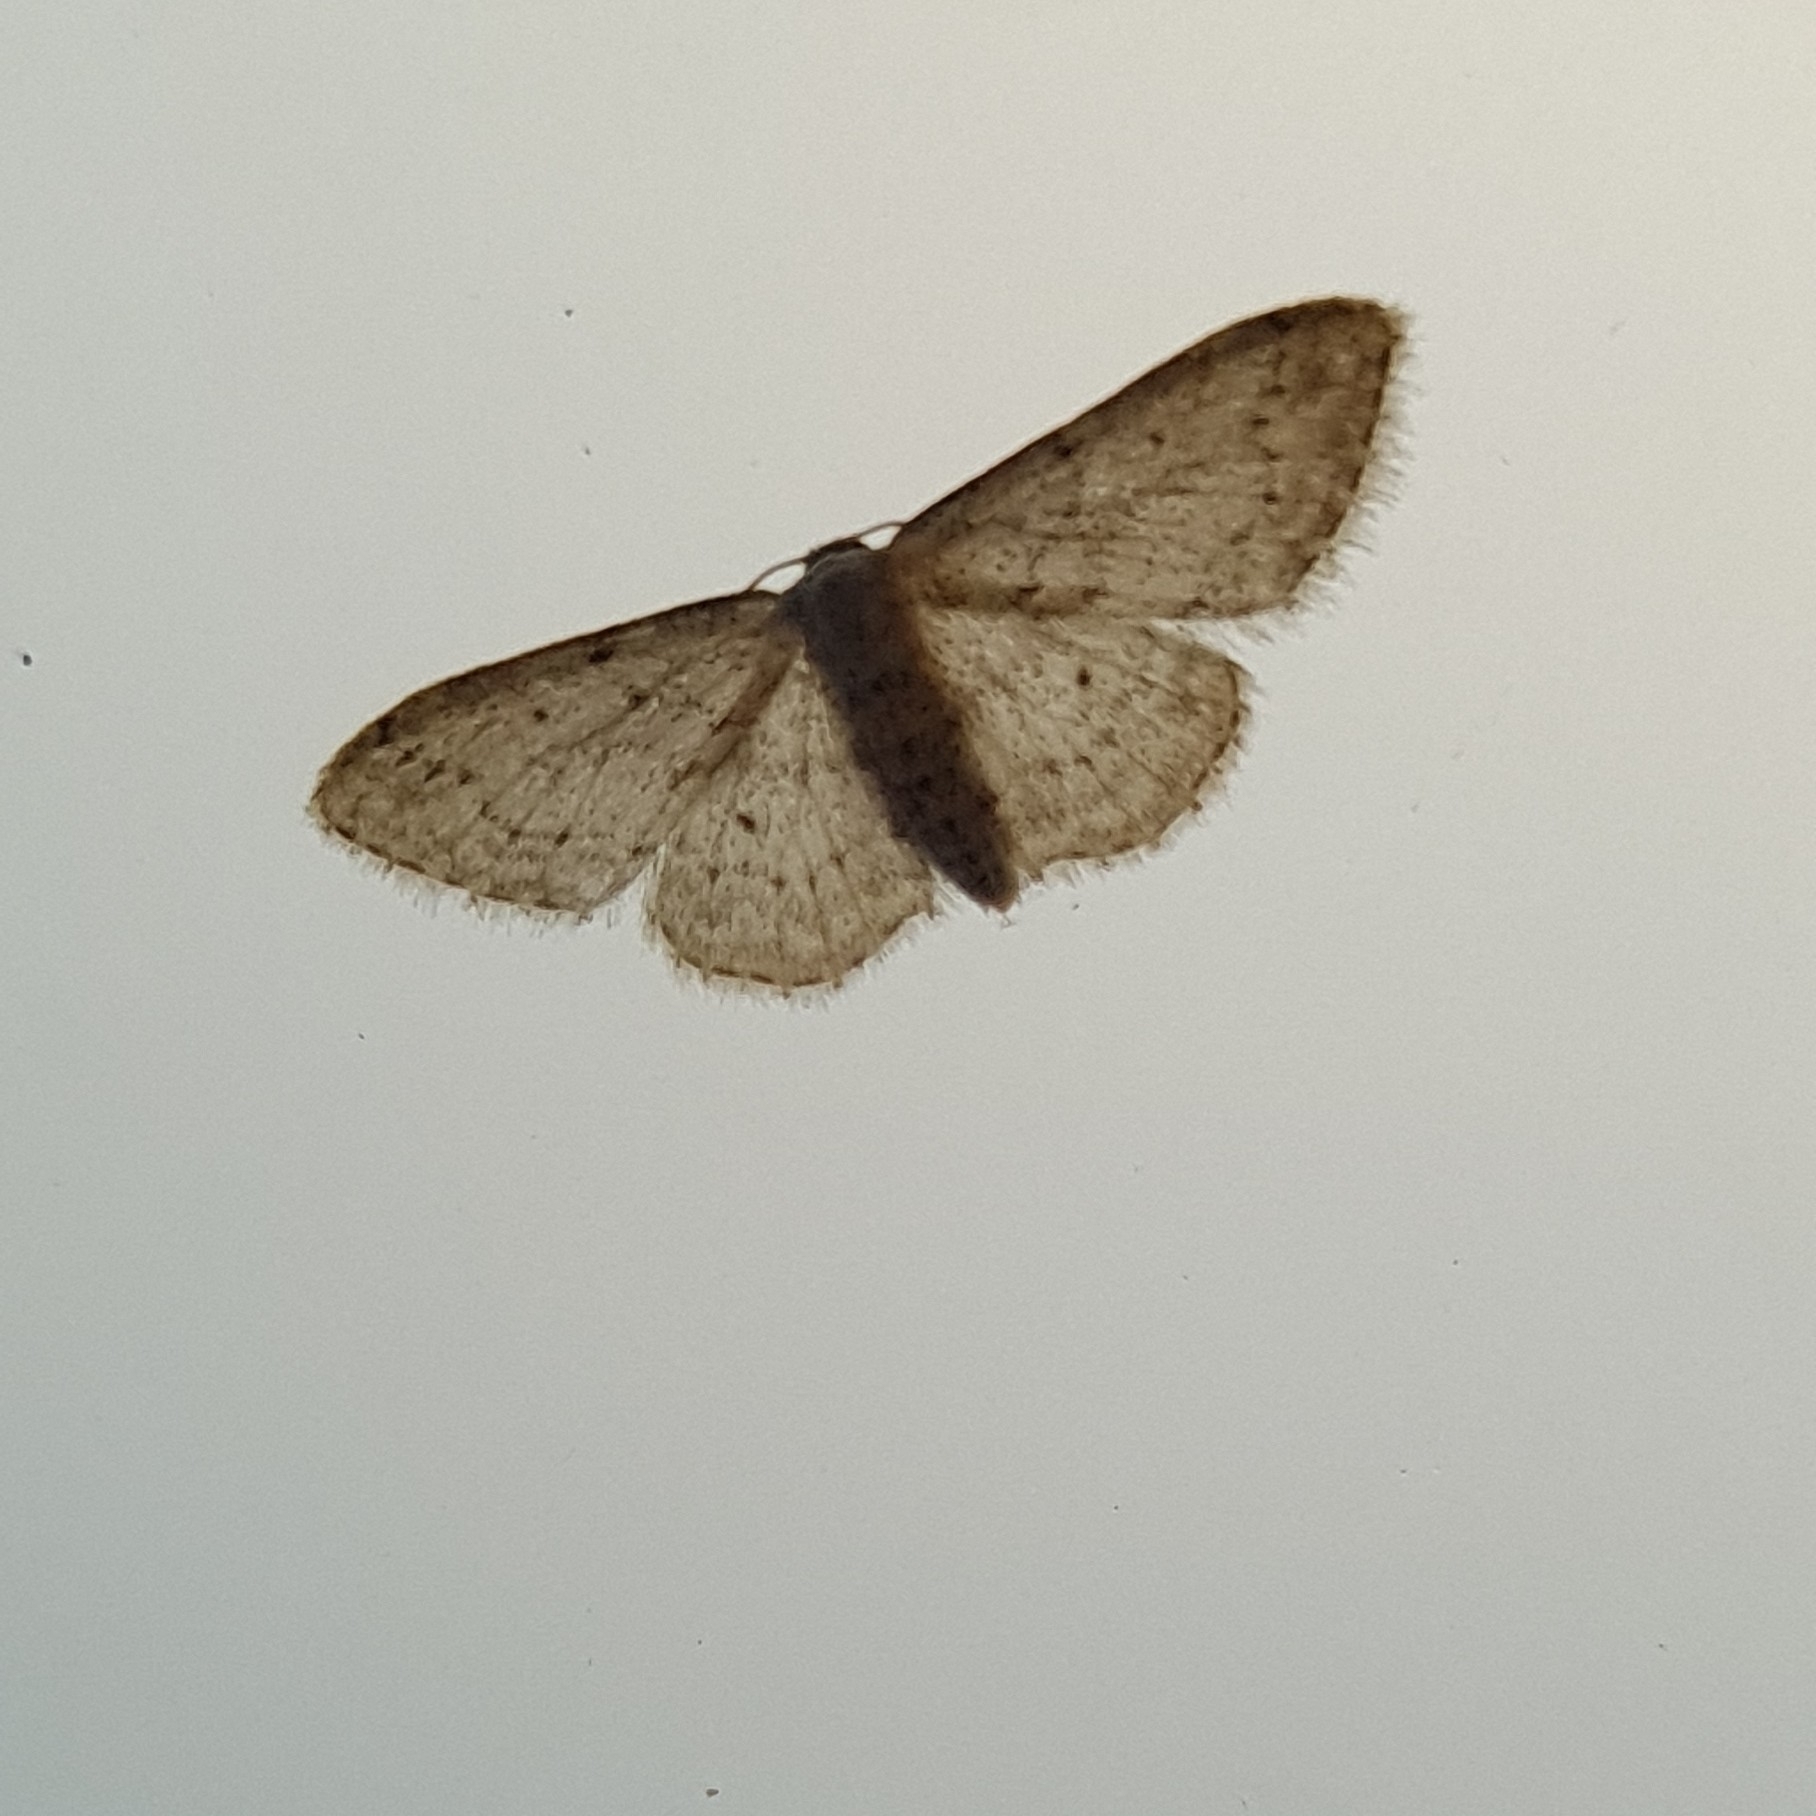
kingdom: Animalia
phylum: Arthropoda
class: Insecta
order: Lepidoptera
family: Geometridae
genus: Idaea
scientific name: Idaea seriata
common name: Small dusty wave
